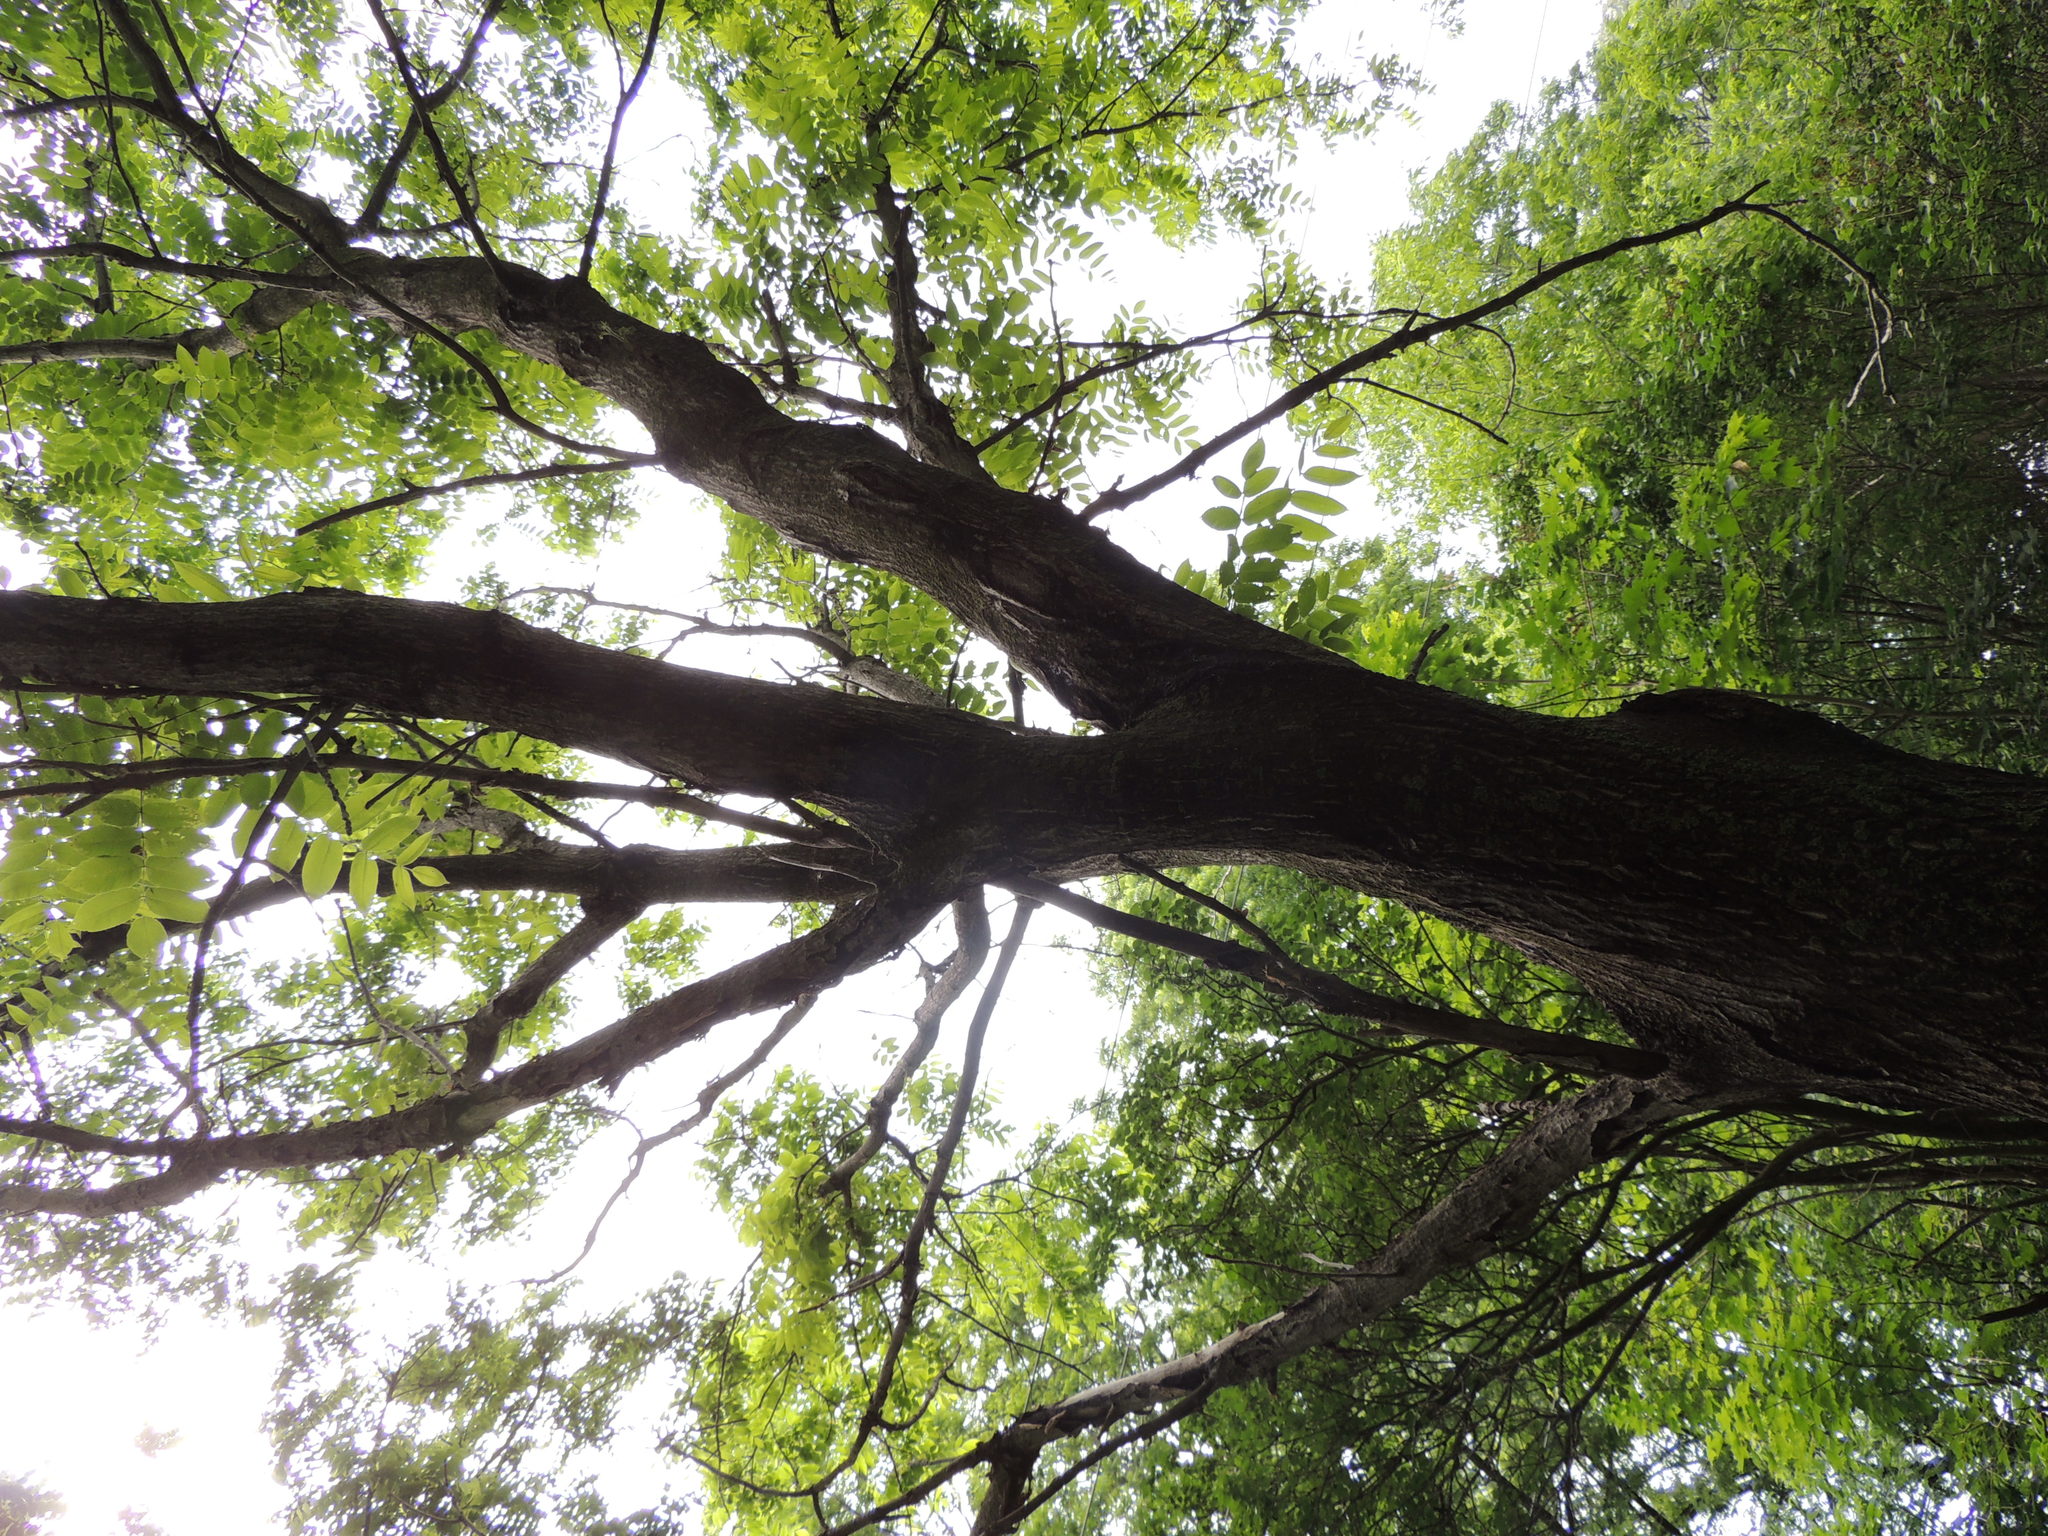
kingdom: Plantae
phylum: Tracheophyta
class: Magnoliopsida
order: Fagales
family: Juglandaceae
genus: Juglans
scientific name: Juglans cinerea
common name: Butternut
